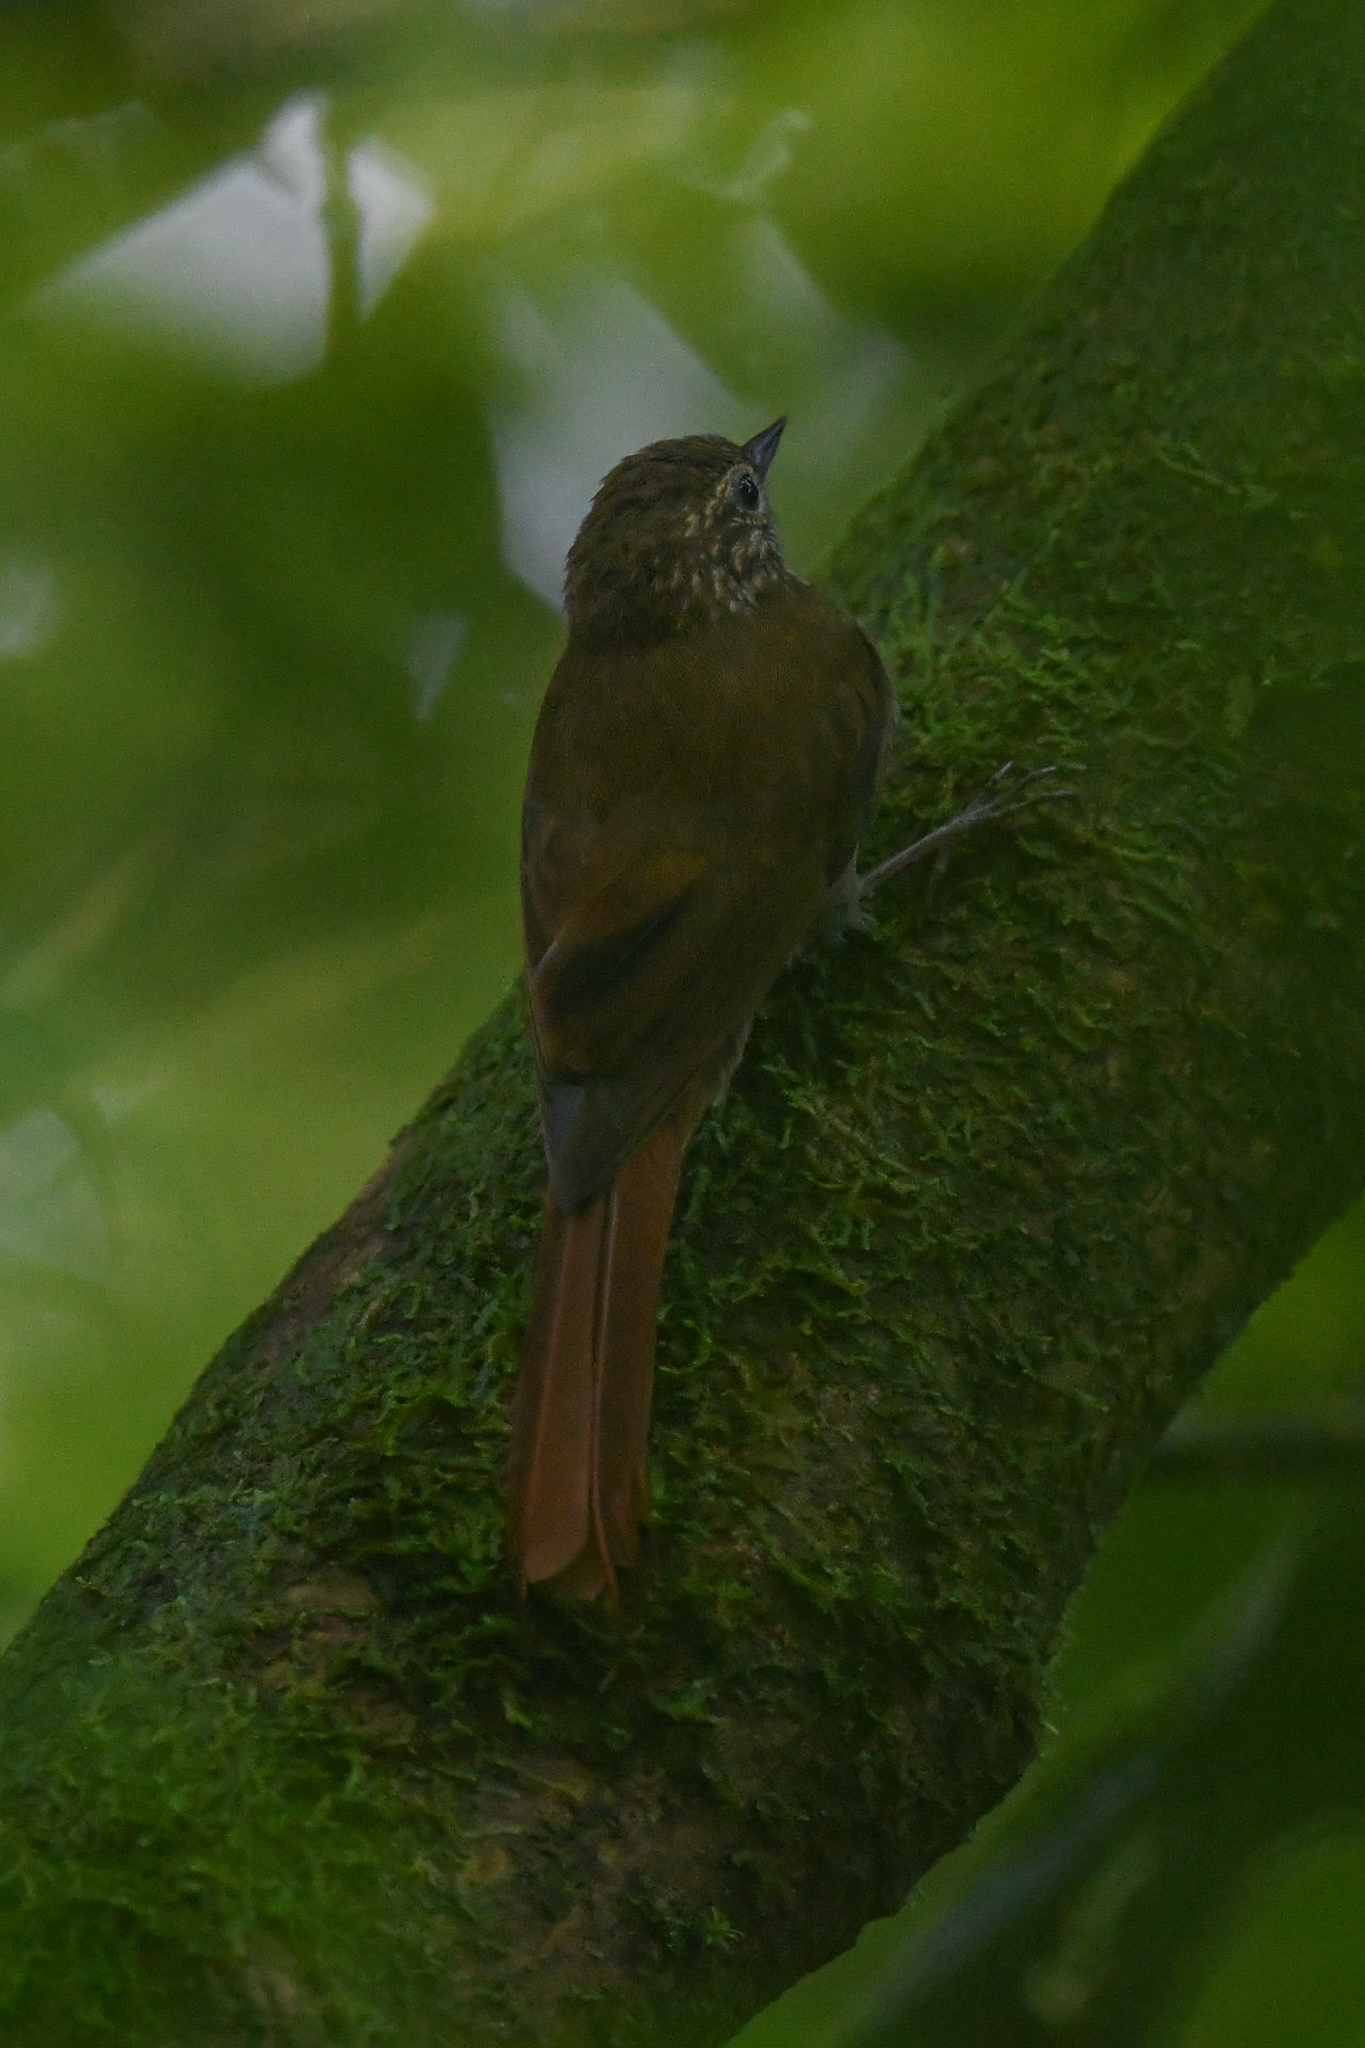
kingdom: Animalia
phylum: Chordata
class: Aves
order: Passeriformes
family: Furnariidae
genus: Glyphorynchus
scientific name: Glyphorynchus spirurus
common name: Wedge-billed woodcreeper
